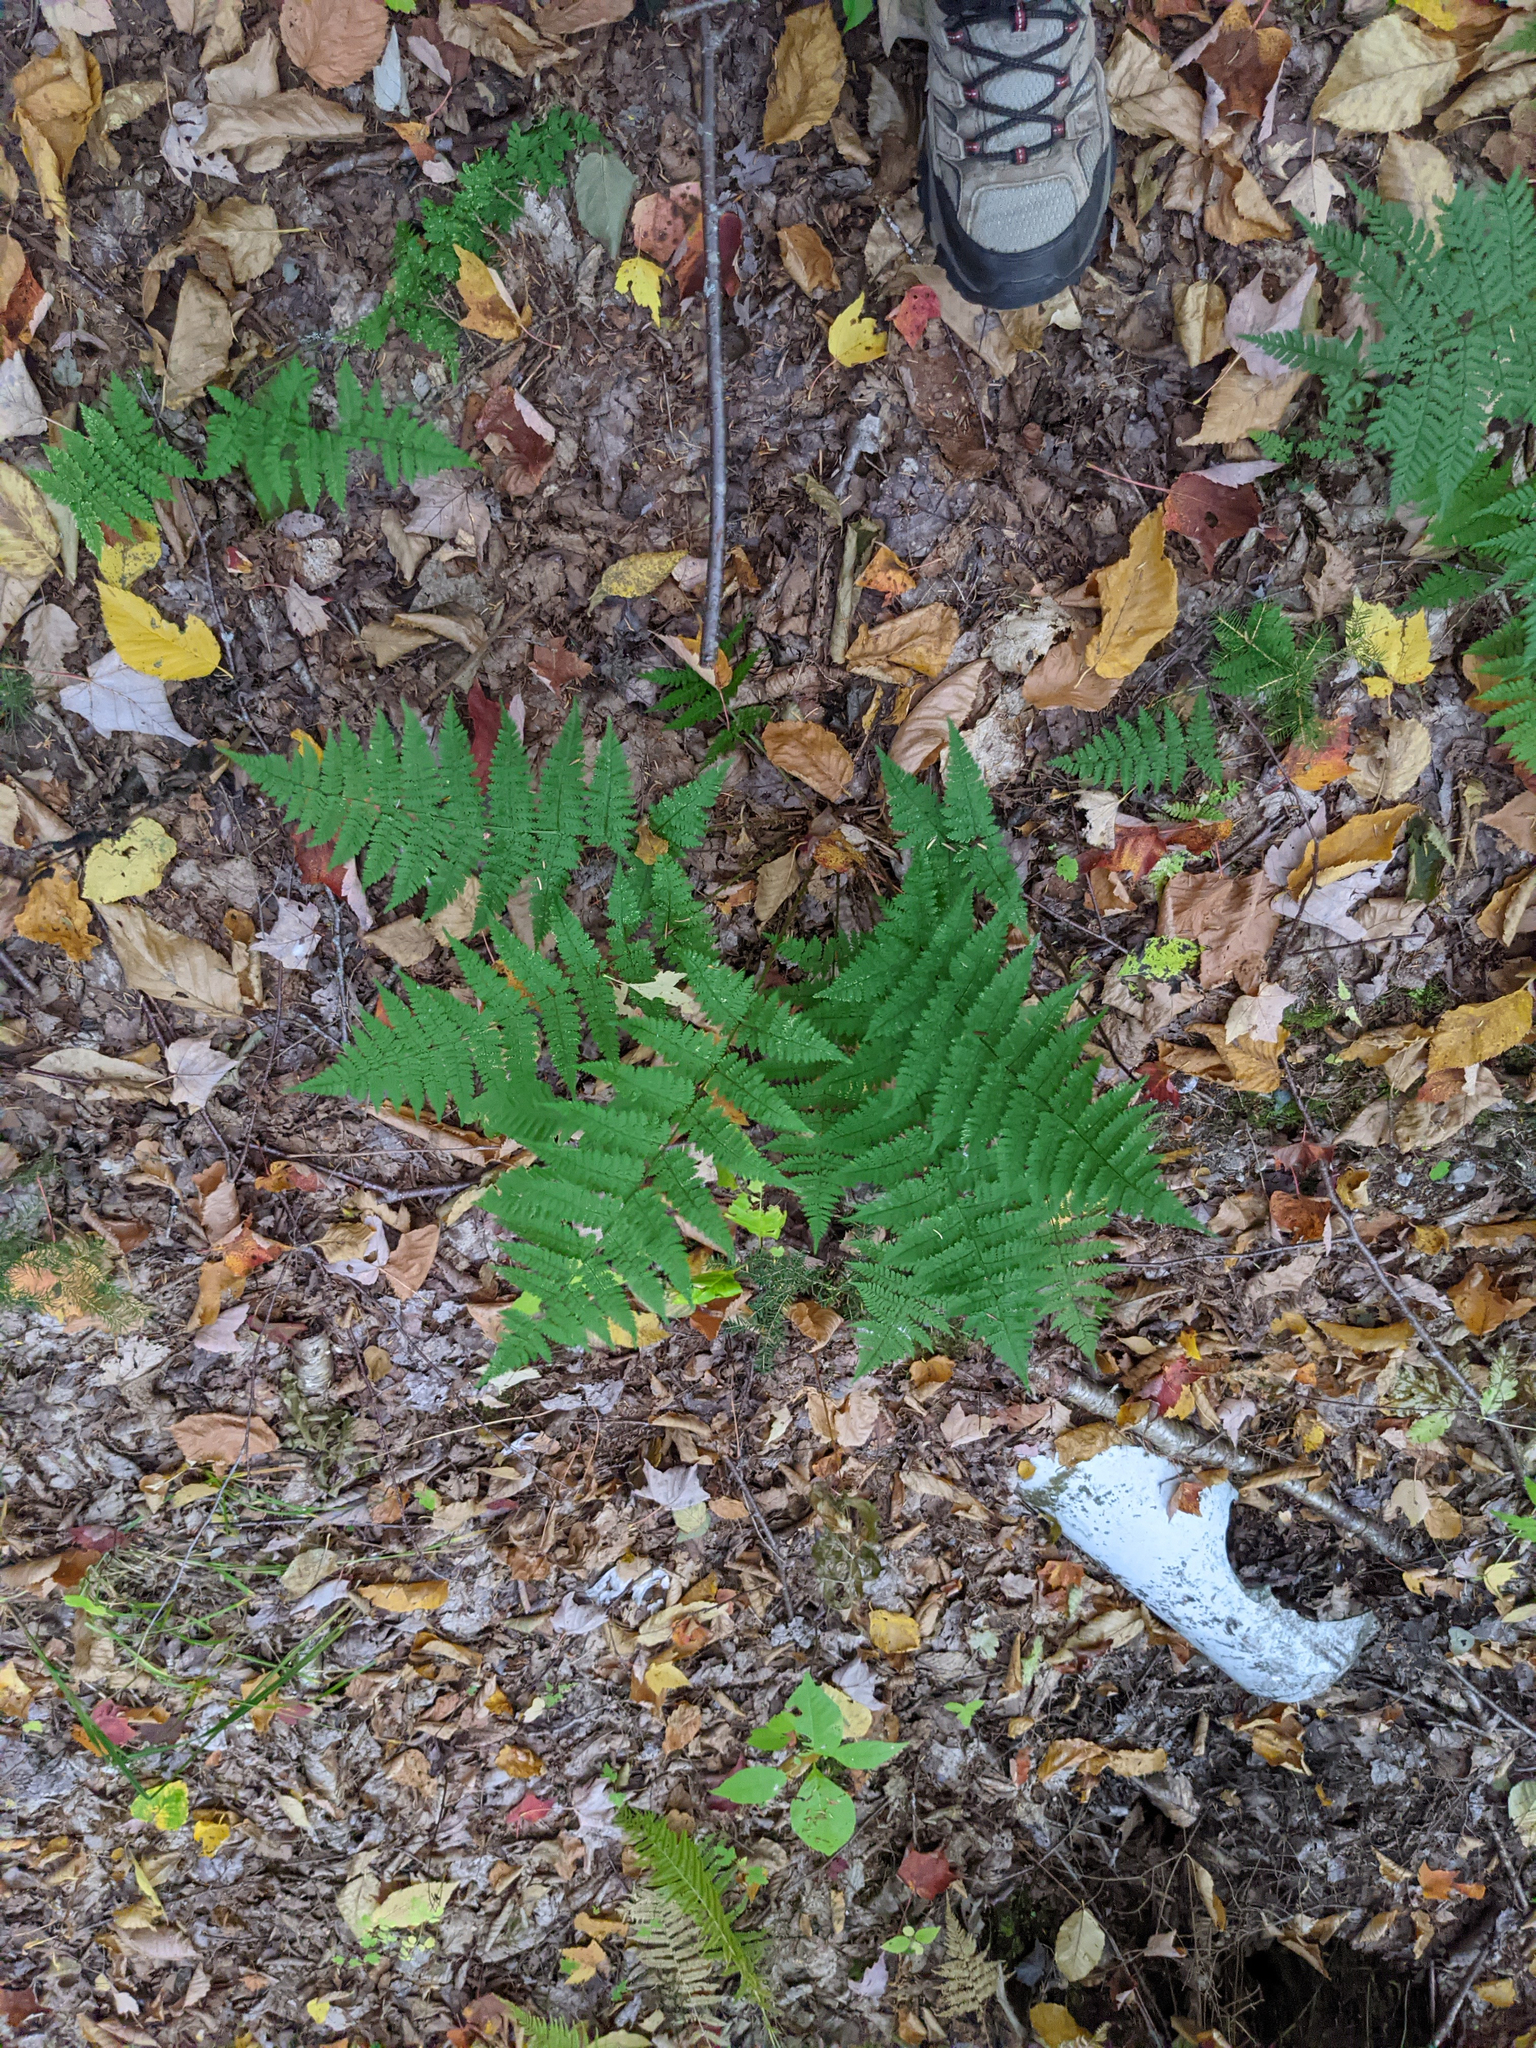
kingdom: Plantae
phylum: Tracheophyta
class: Polypodiopsida
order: Polypodiales
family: Dryopteridaceae
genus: Dryopteris
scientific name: Dryopteris intermedia
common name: Evergreen wood fern
